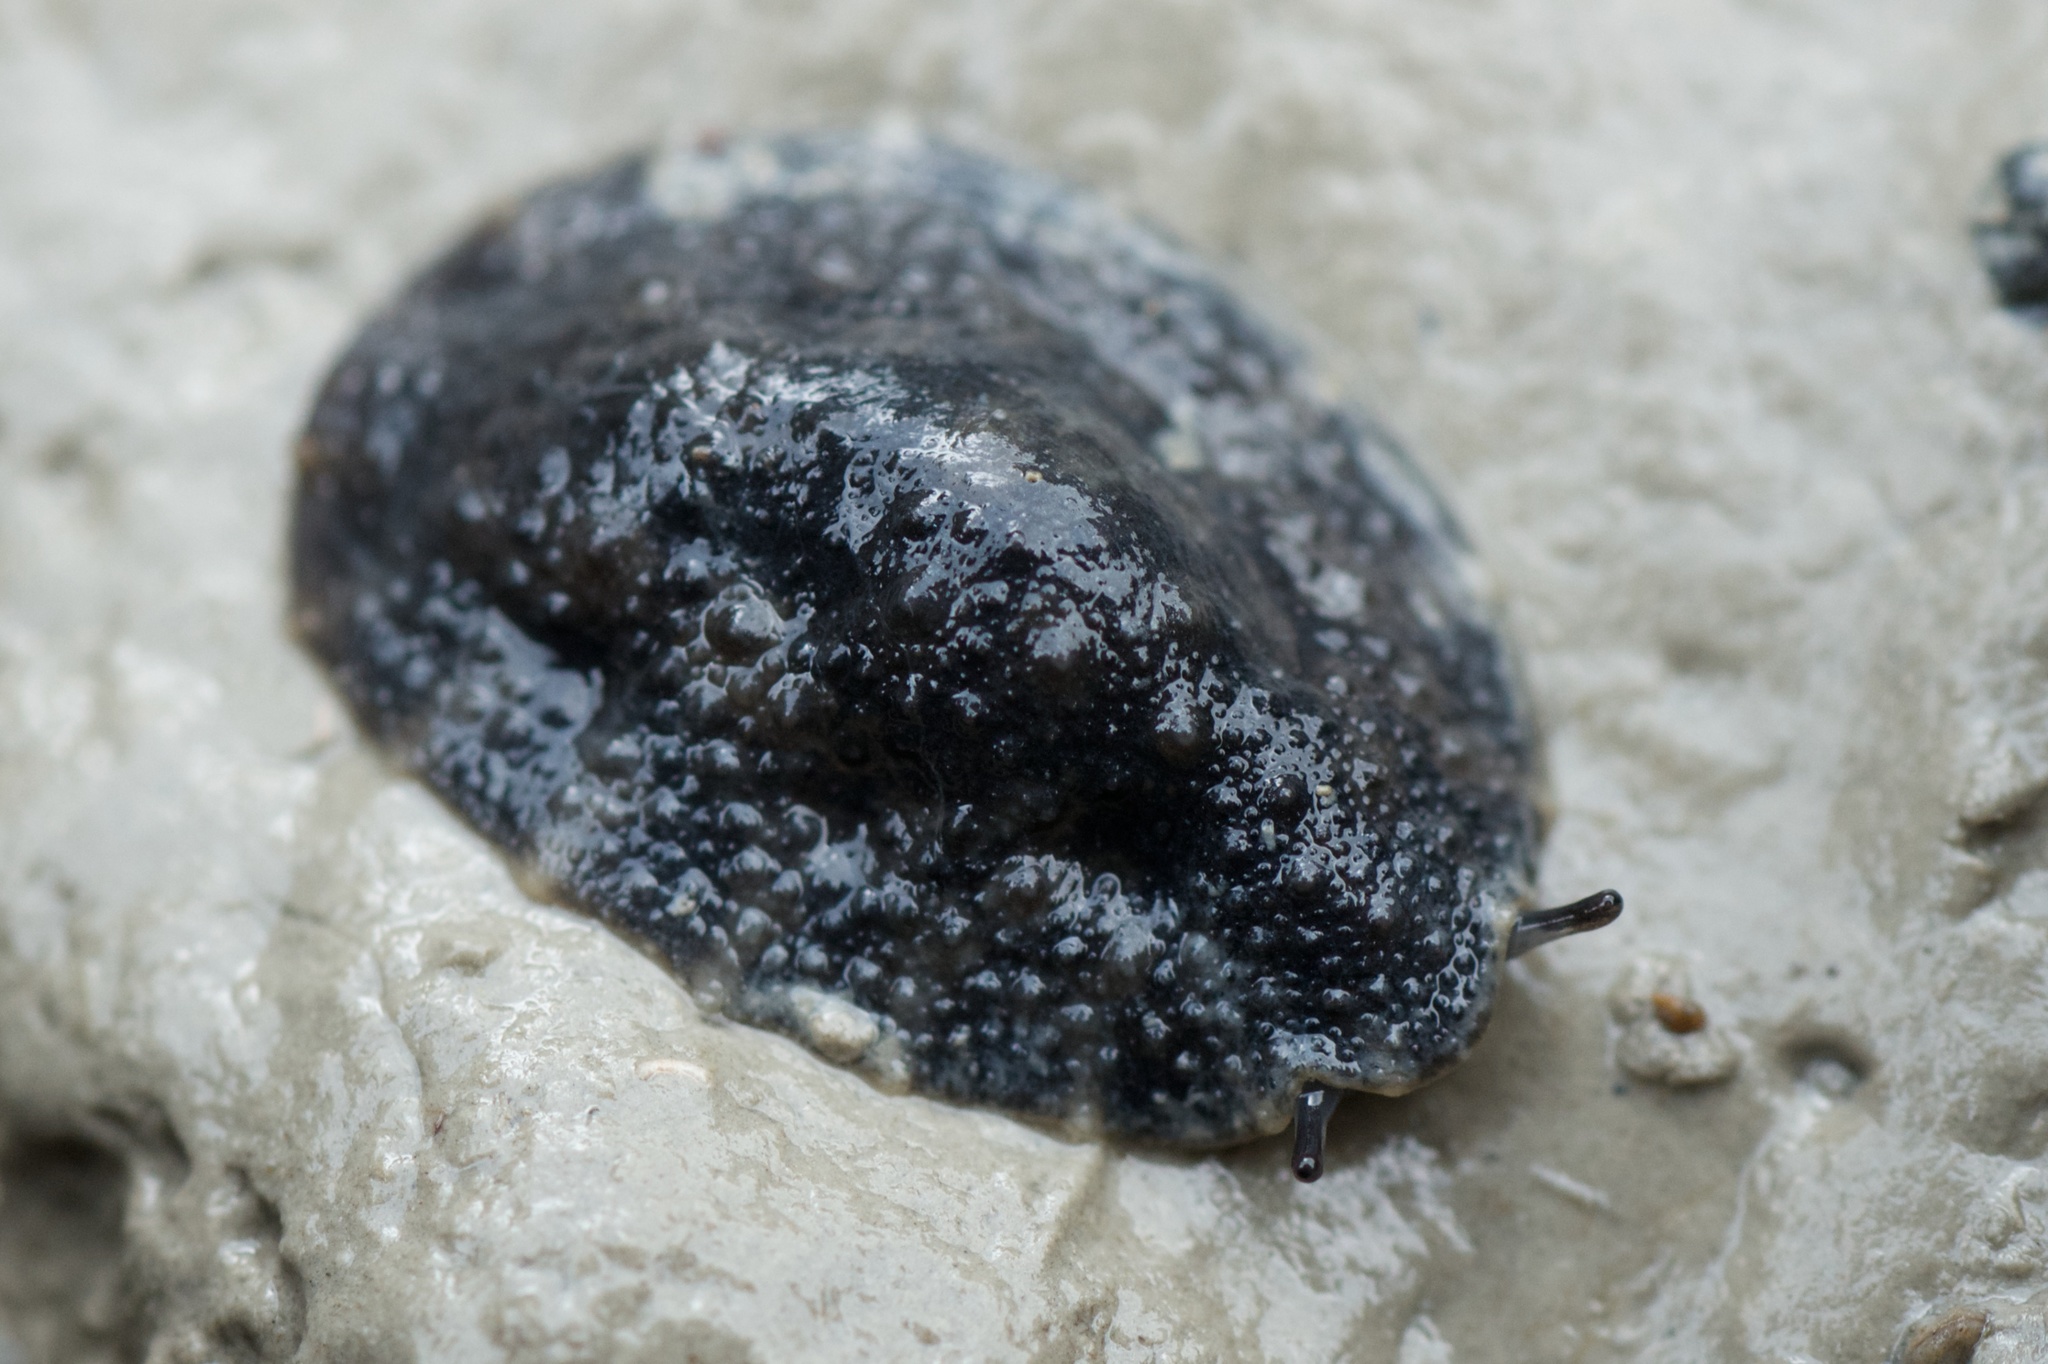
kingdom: Animalia
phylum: Mollusca
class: Gastropoda
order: Systellommatophora
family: Onchidiidae
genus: Onchidella
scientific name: Onchidella nigricans
